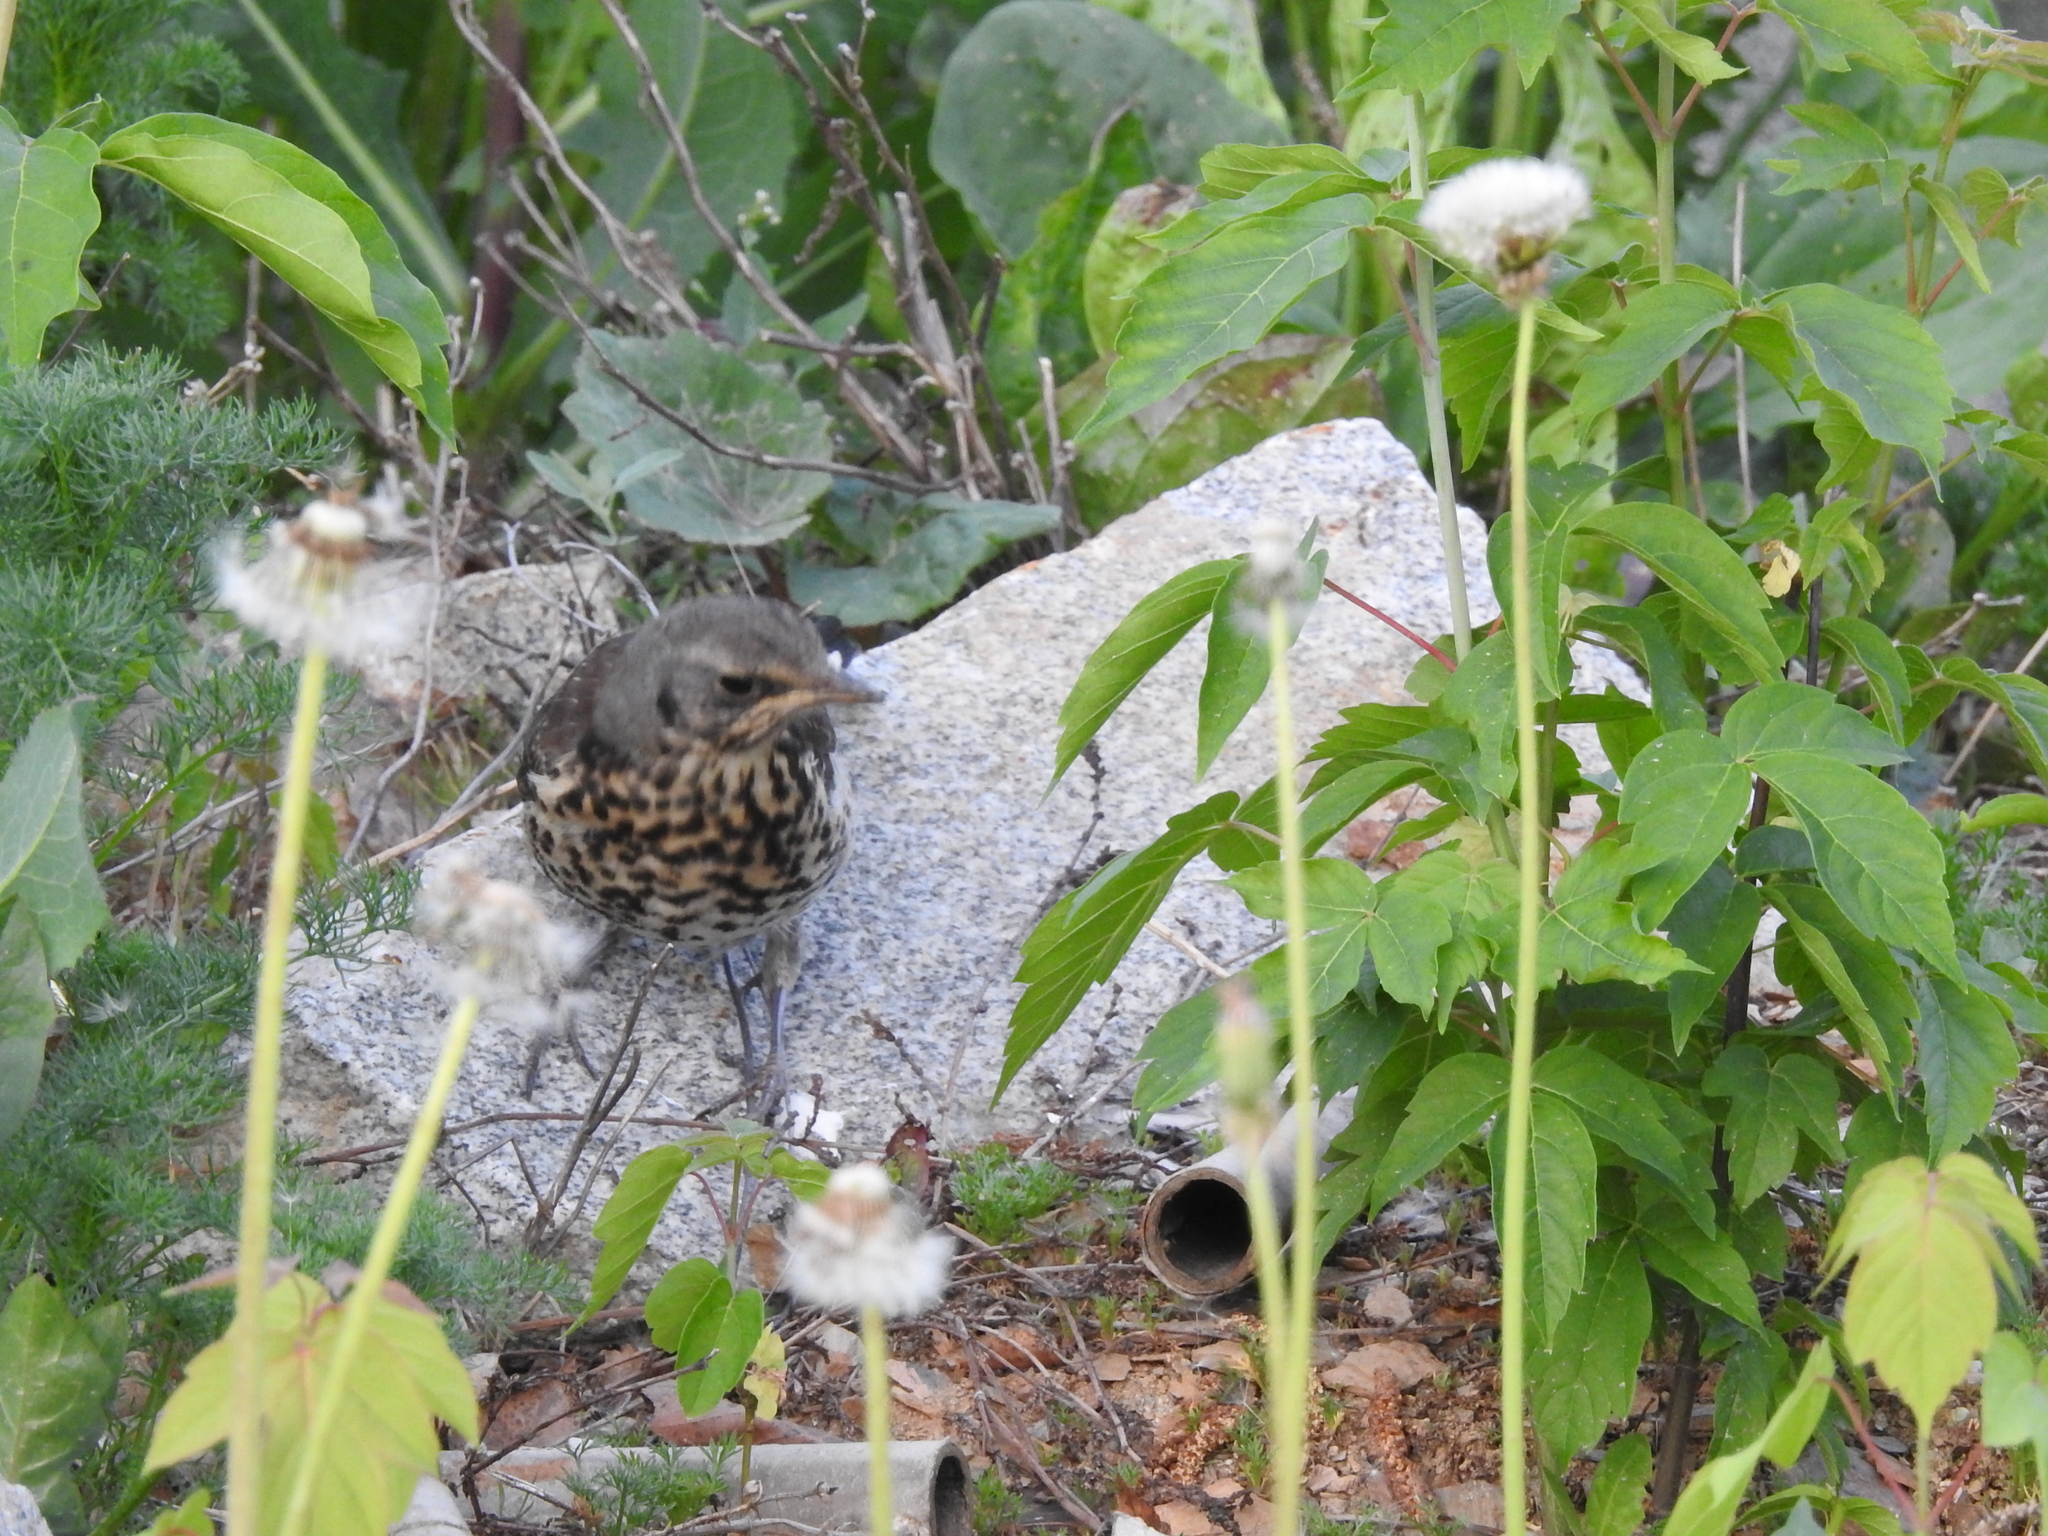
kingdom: Animalia
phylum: Chordata
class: Aves
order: Passeriformes
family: Turdidae
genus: Turdus
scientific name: Turdus pilaris
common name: Fieldfare
